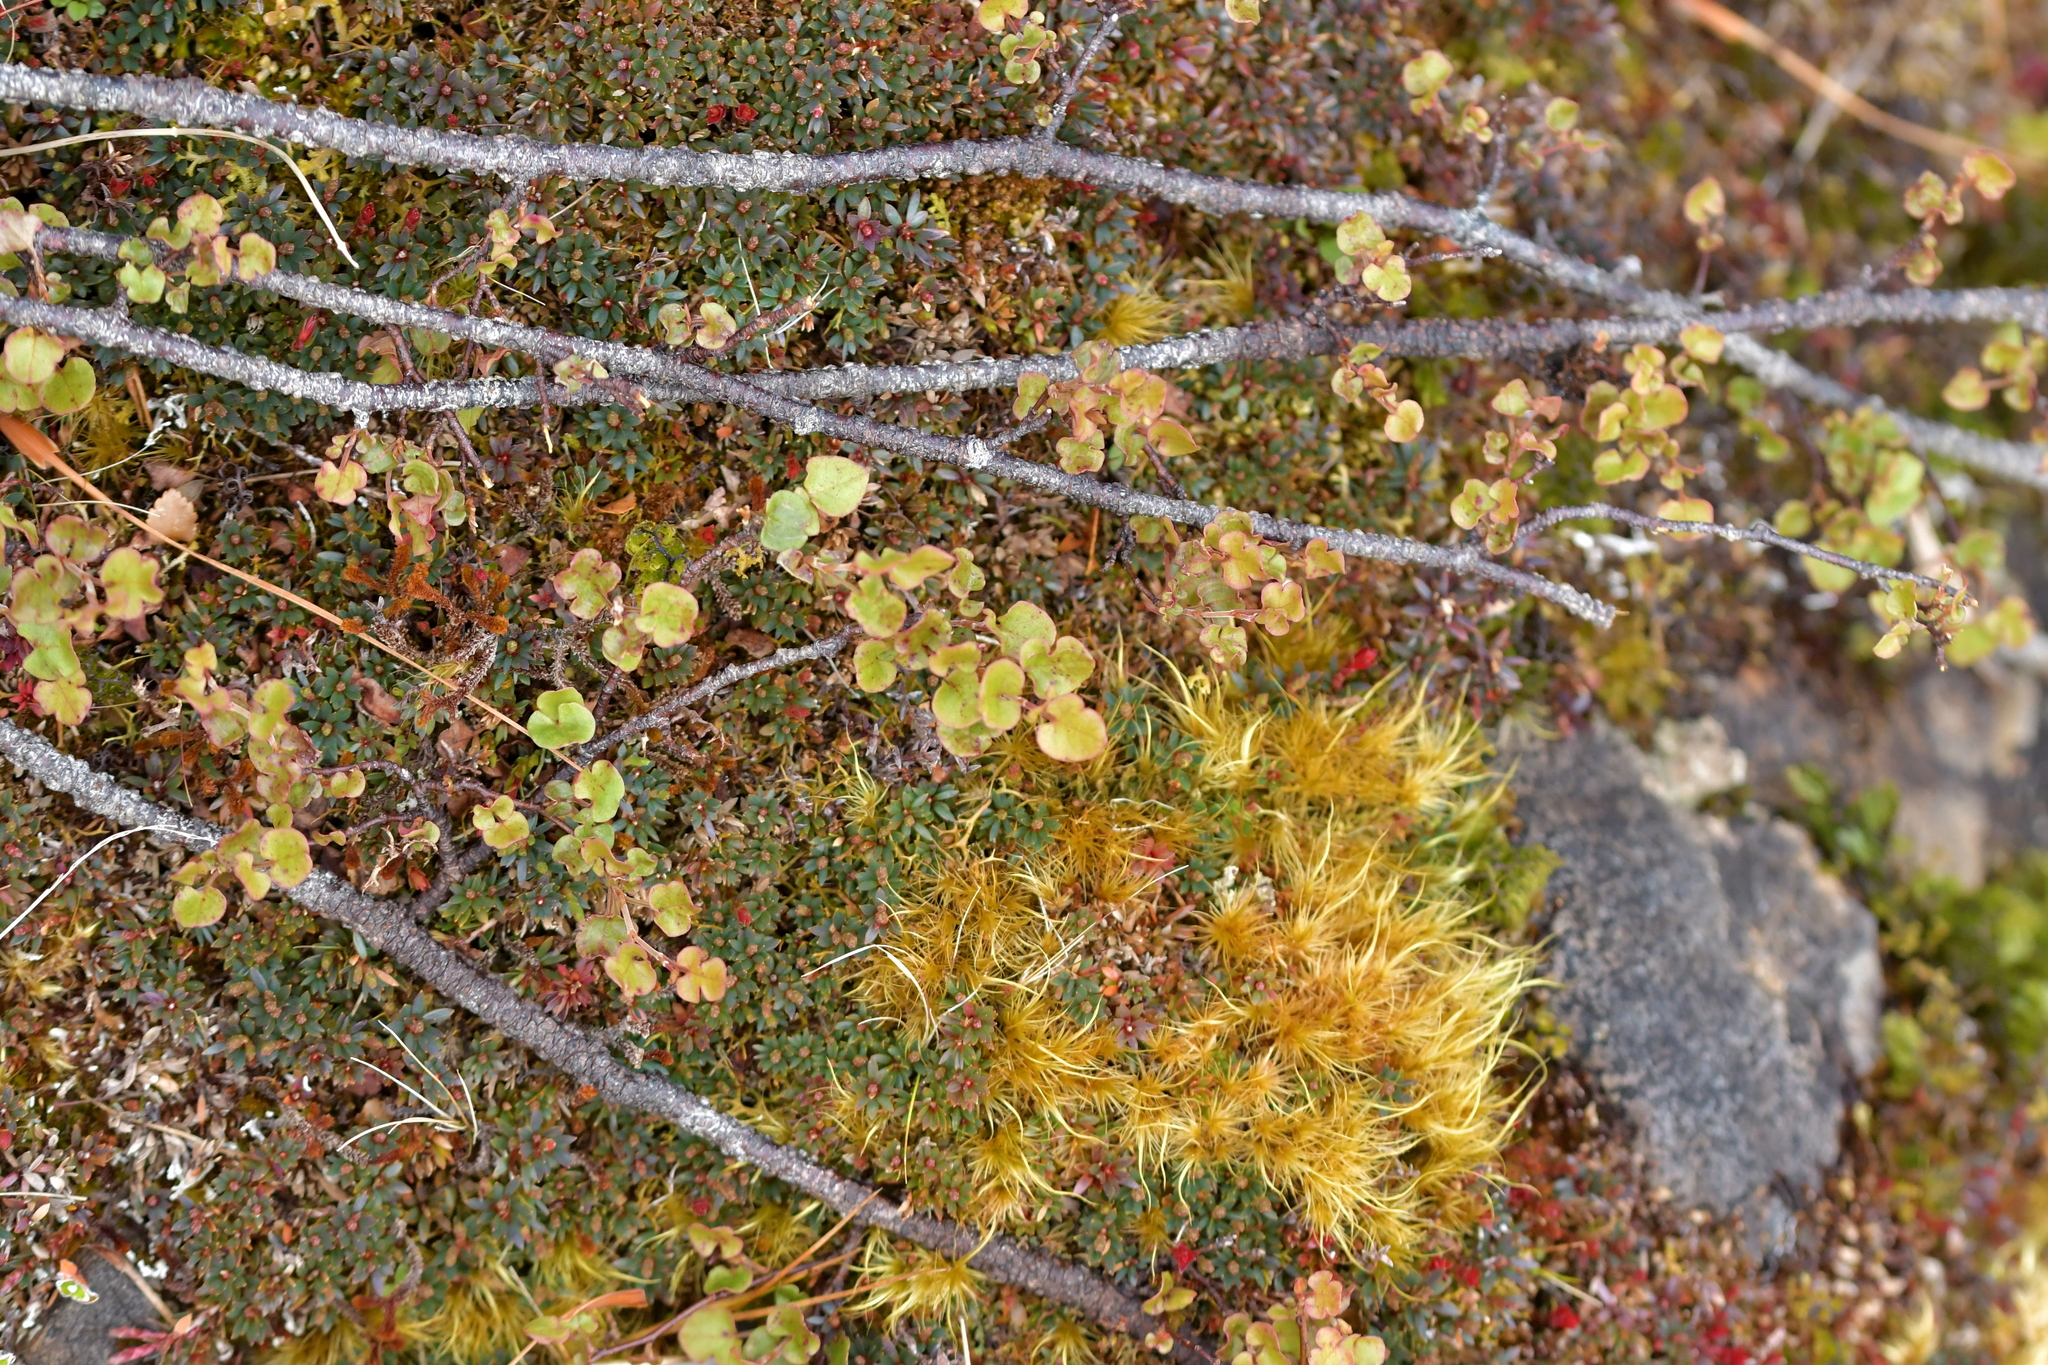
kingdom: Plantae
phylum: Tracheophyta
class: Magnoliopsida
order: Caryophyllales
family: Polygonaceae
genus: Muehlenbeckia
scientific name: Muehlenbeckia australis
